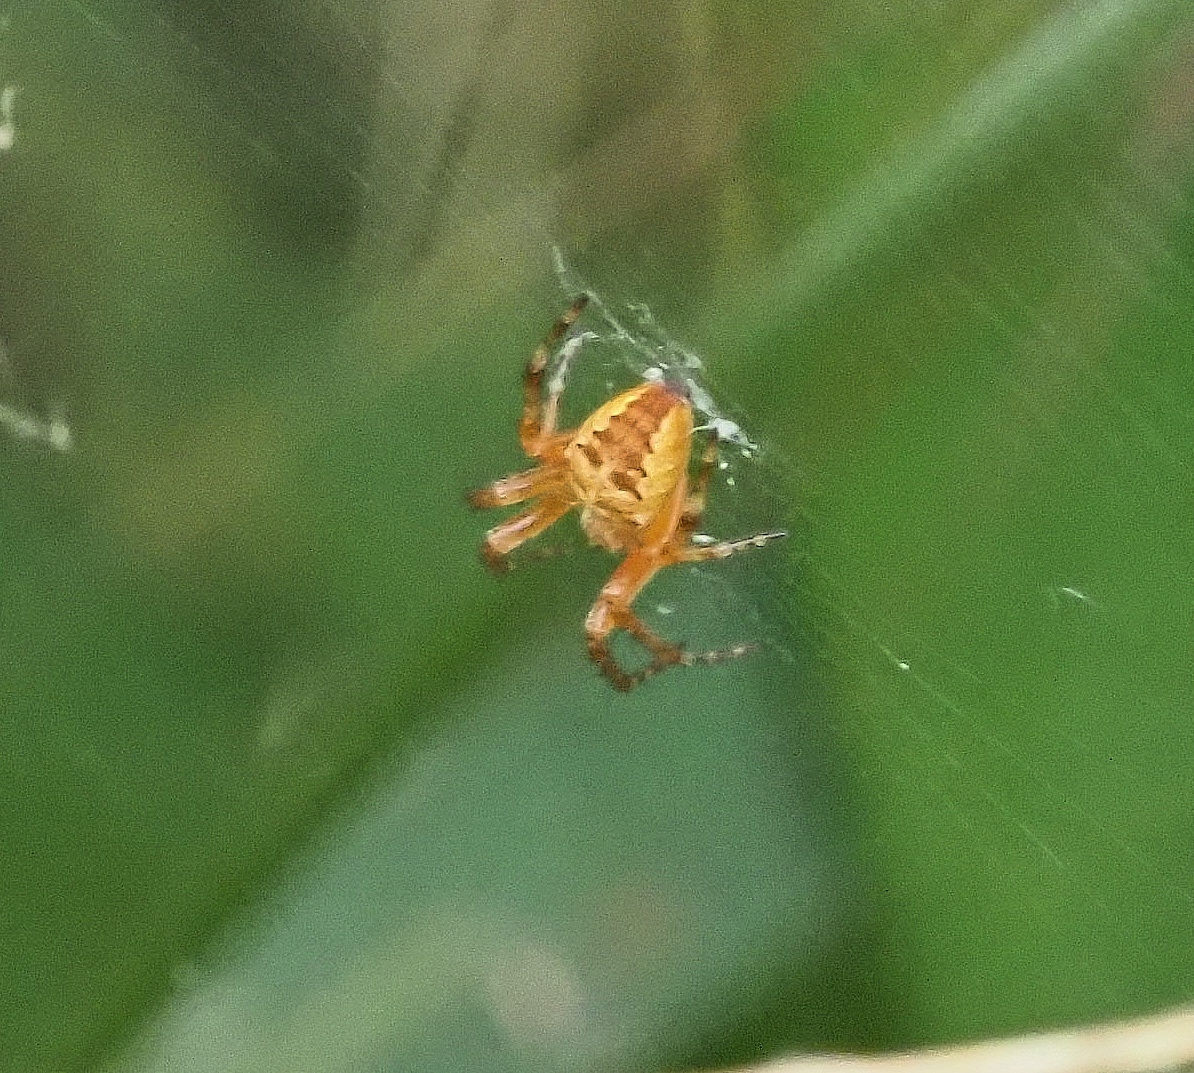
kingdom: Animalia
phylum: Arthropoda
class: Arachnida
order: Araneae
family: Araneidae
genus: Araneus
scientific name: Araneus diadematus
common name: Cross orbweaver
